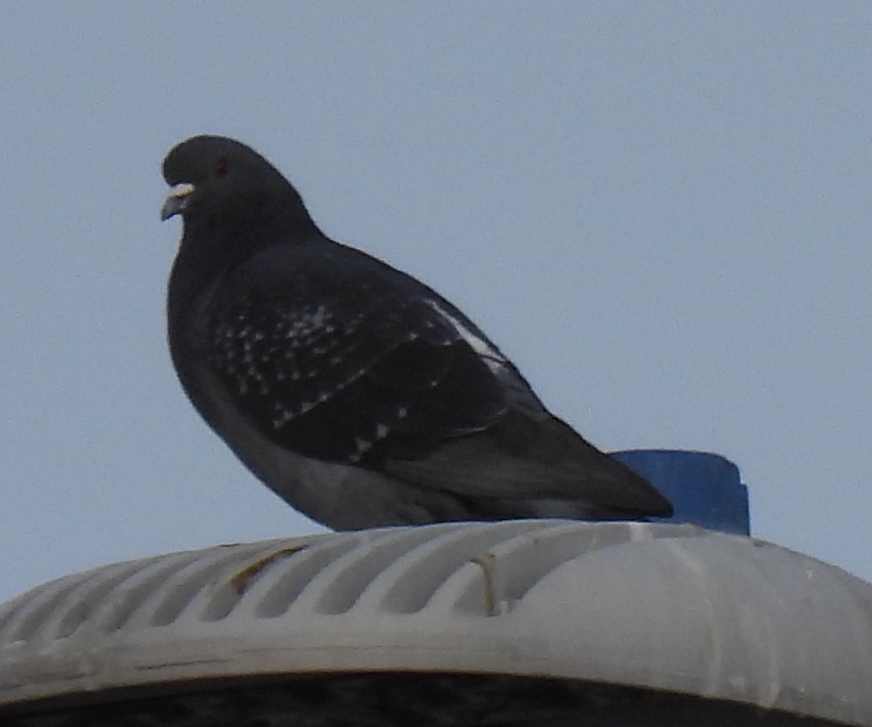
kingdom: Animalia
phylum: Chordata
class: Aves
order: Columbiformes
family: Columbidae
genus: Columba
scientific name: Columba livia
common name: Rock pigeon
